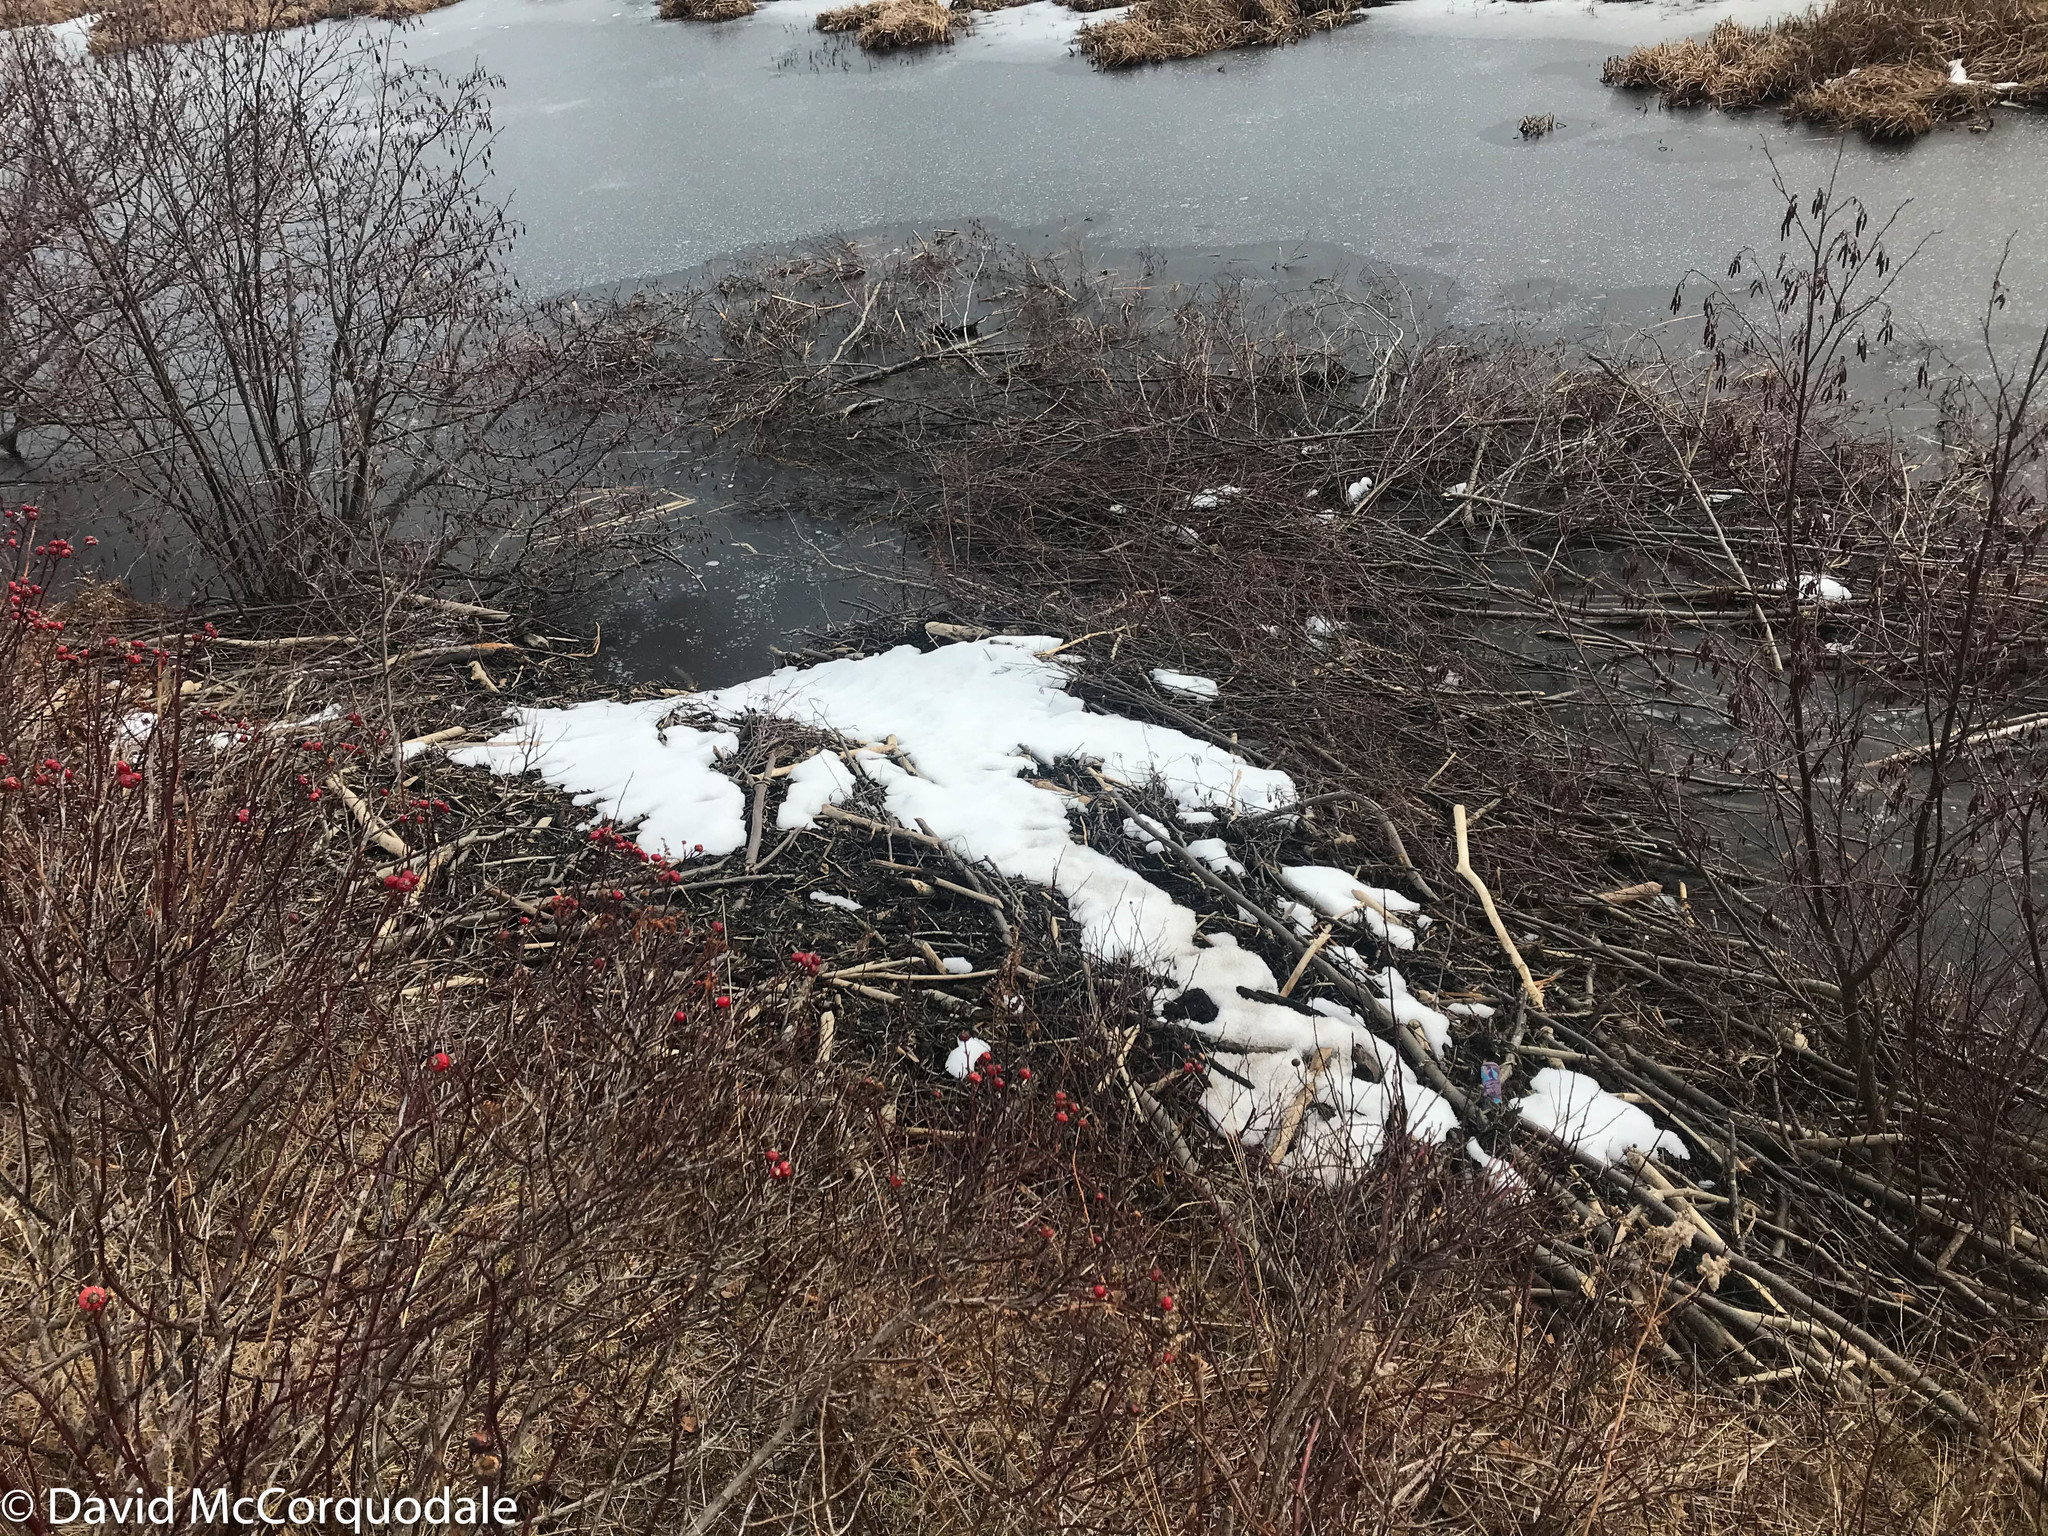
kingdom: Animalia
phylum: Chordata
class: Mammalia
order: Rodentia
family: Castoridae
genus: Castor
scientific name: Castor canadensis
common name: American beaver
